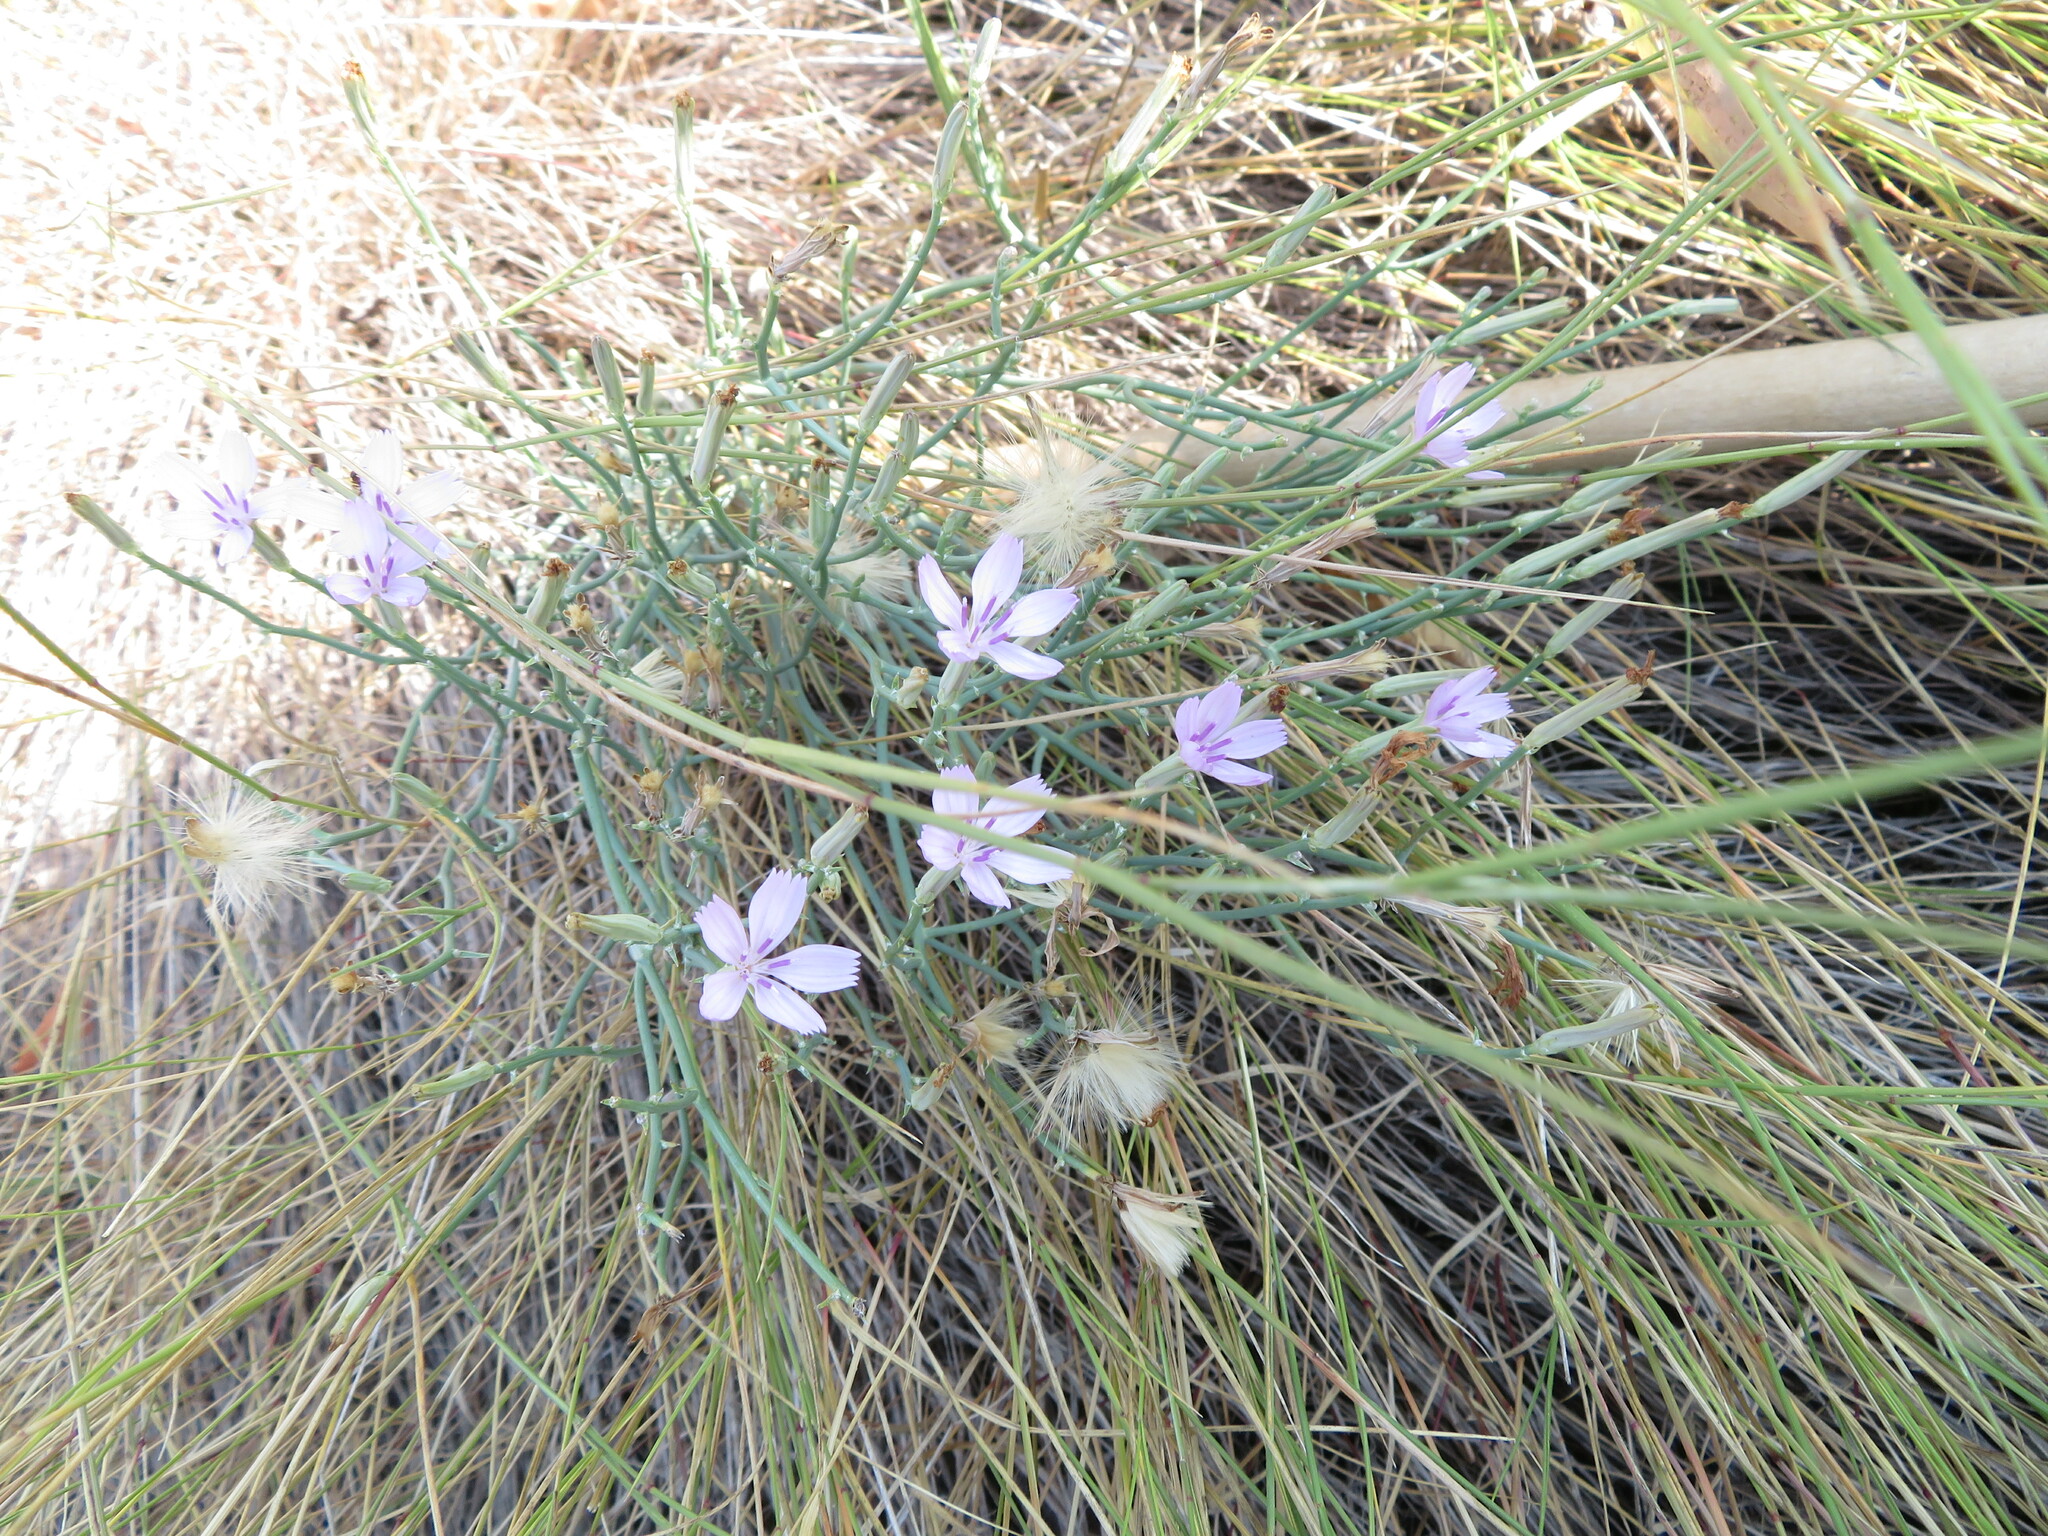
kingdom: Plantae
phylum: Tracheophyta
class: Magnoliopsida
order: Asterales
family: Asteraceae
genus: Lygodesmia
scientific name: Lygodesmia juncea
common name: Common skeletonweed
